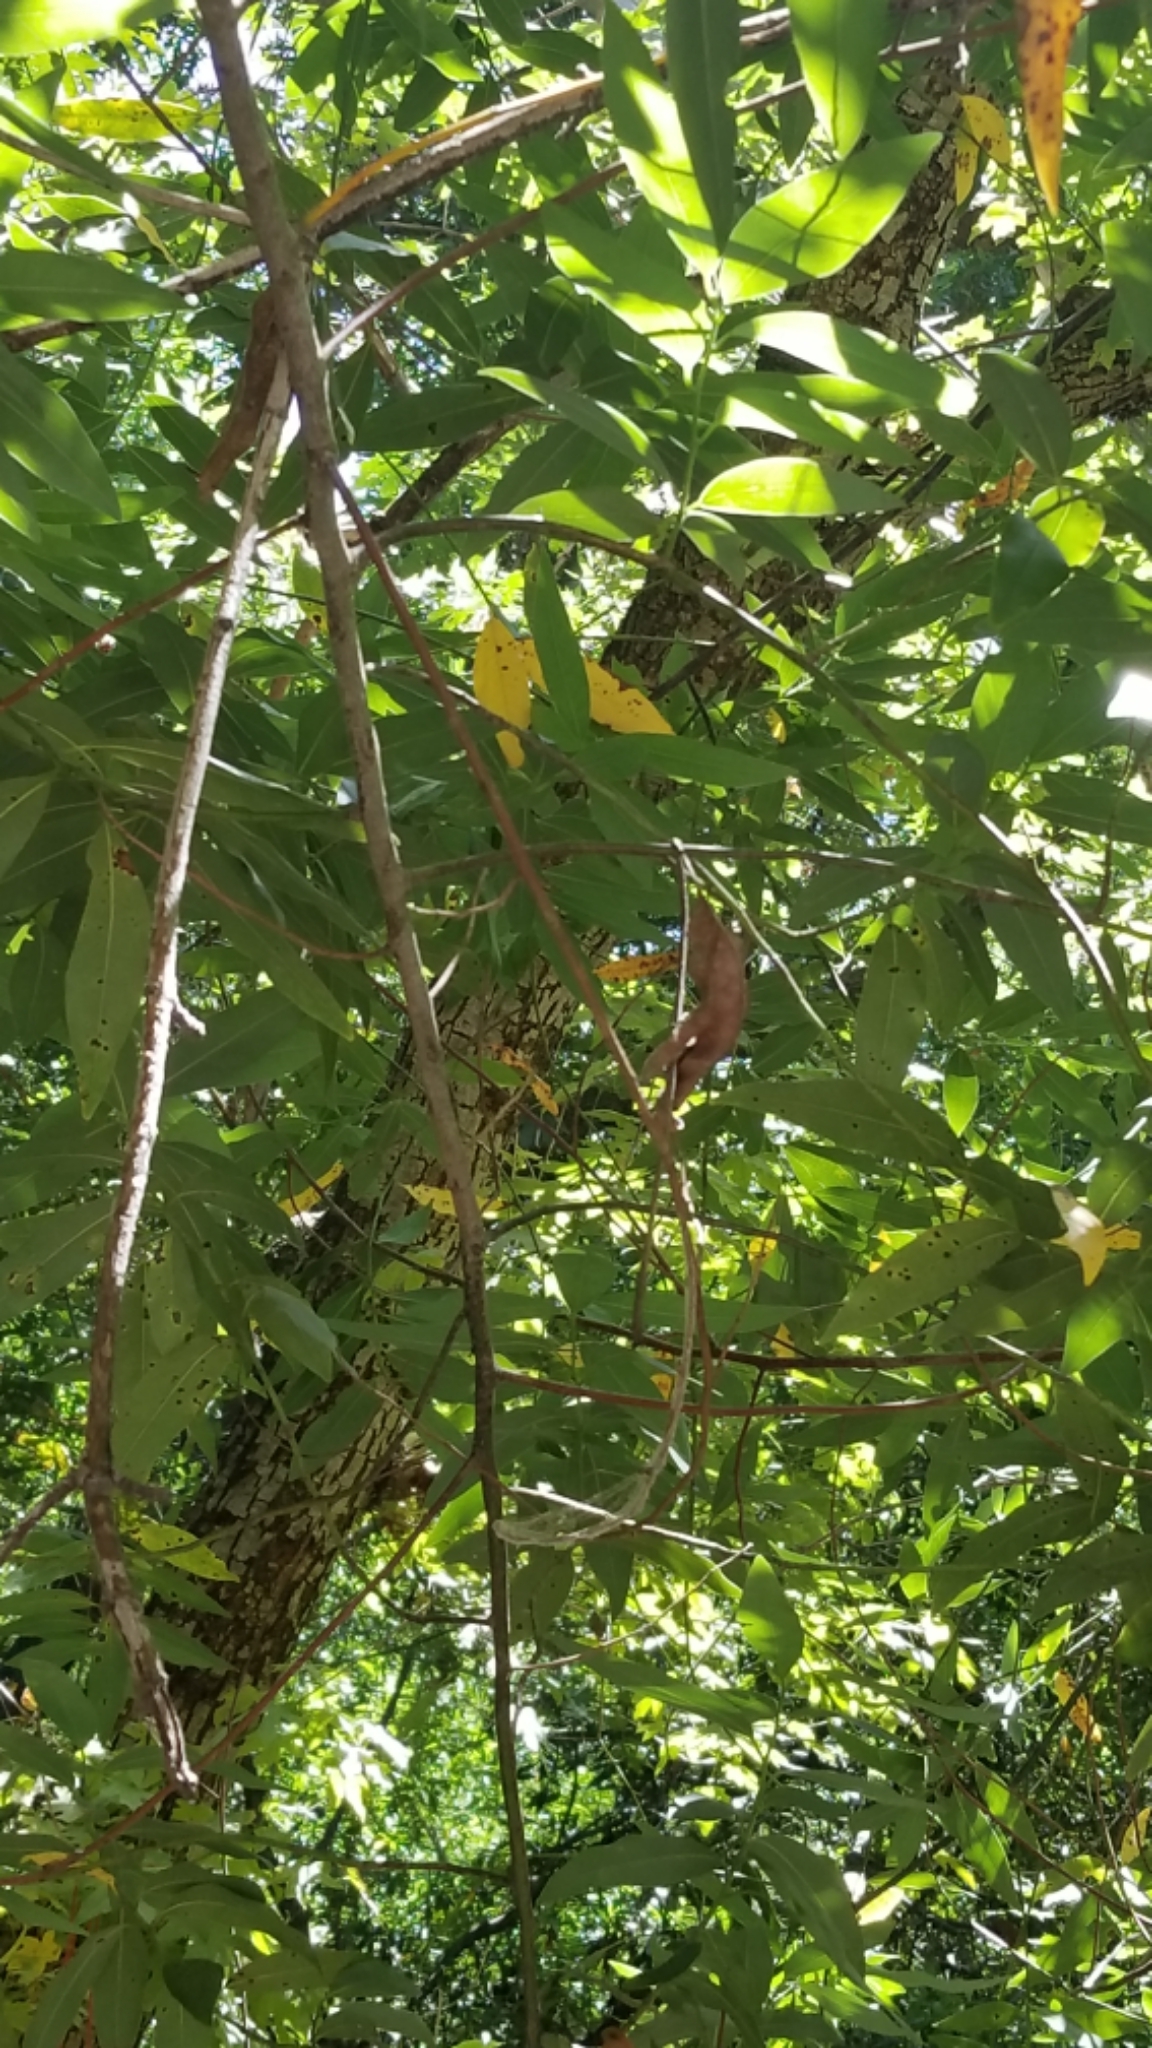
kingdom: Plantae
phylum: Tracheophyta
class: Magnoliopsida
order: Laurales
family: Lauraceae
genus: Umbellularia
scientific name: Umbellularia californica
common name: California bay
